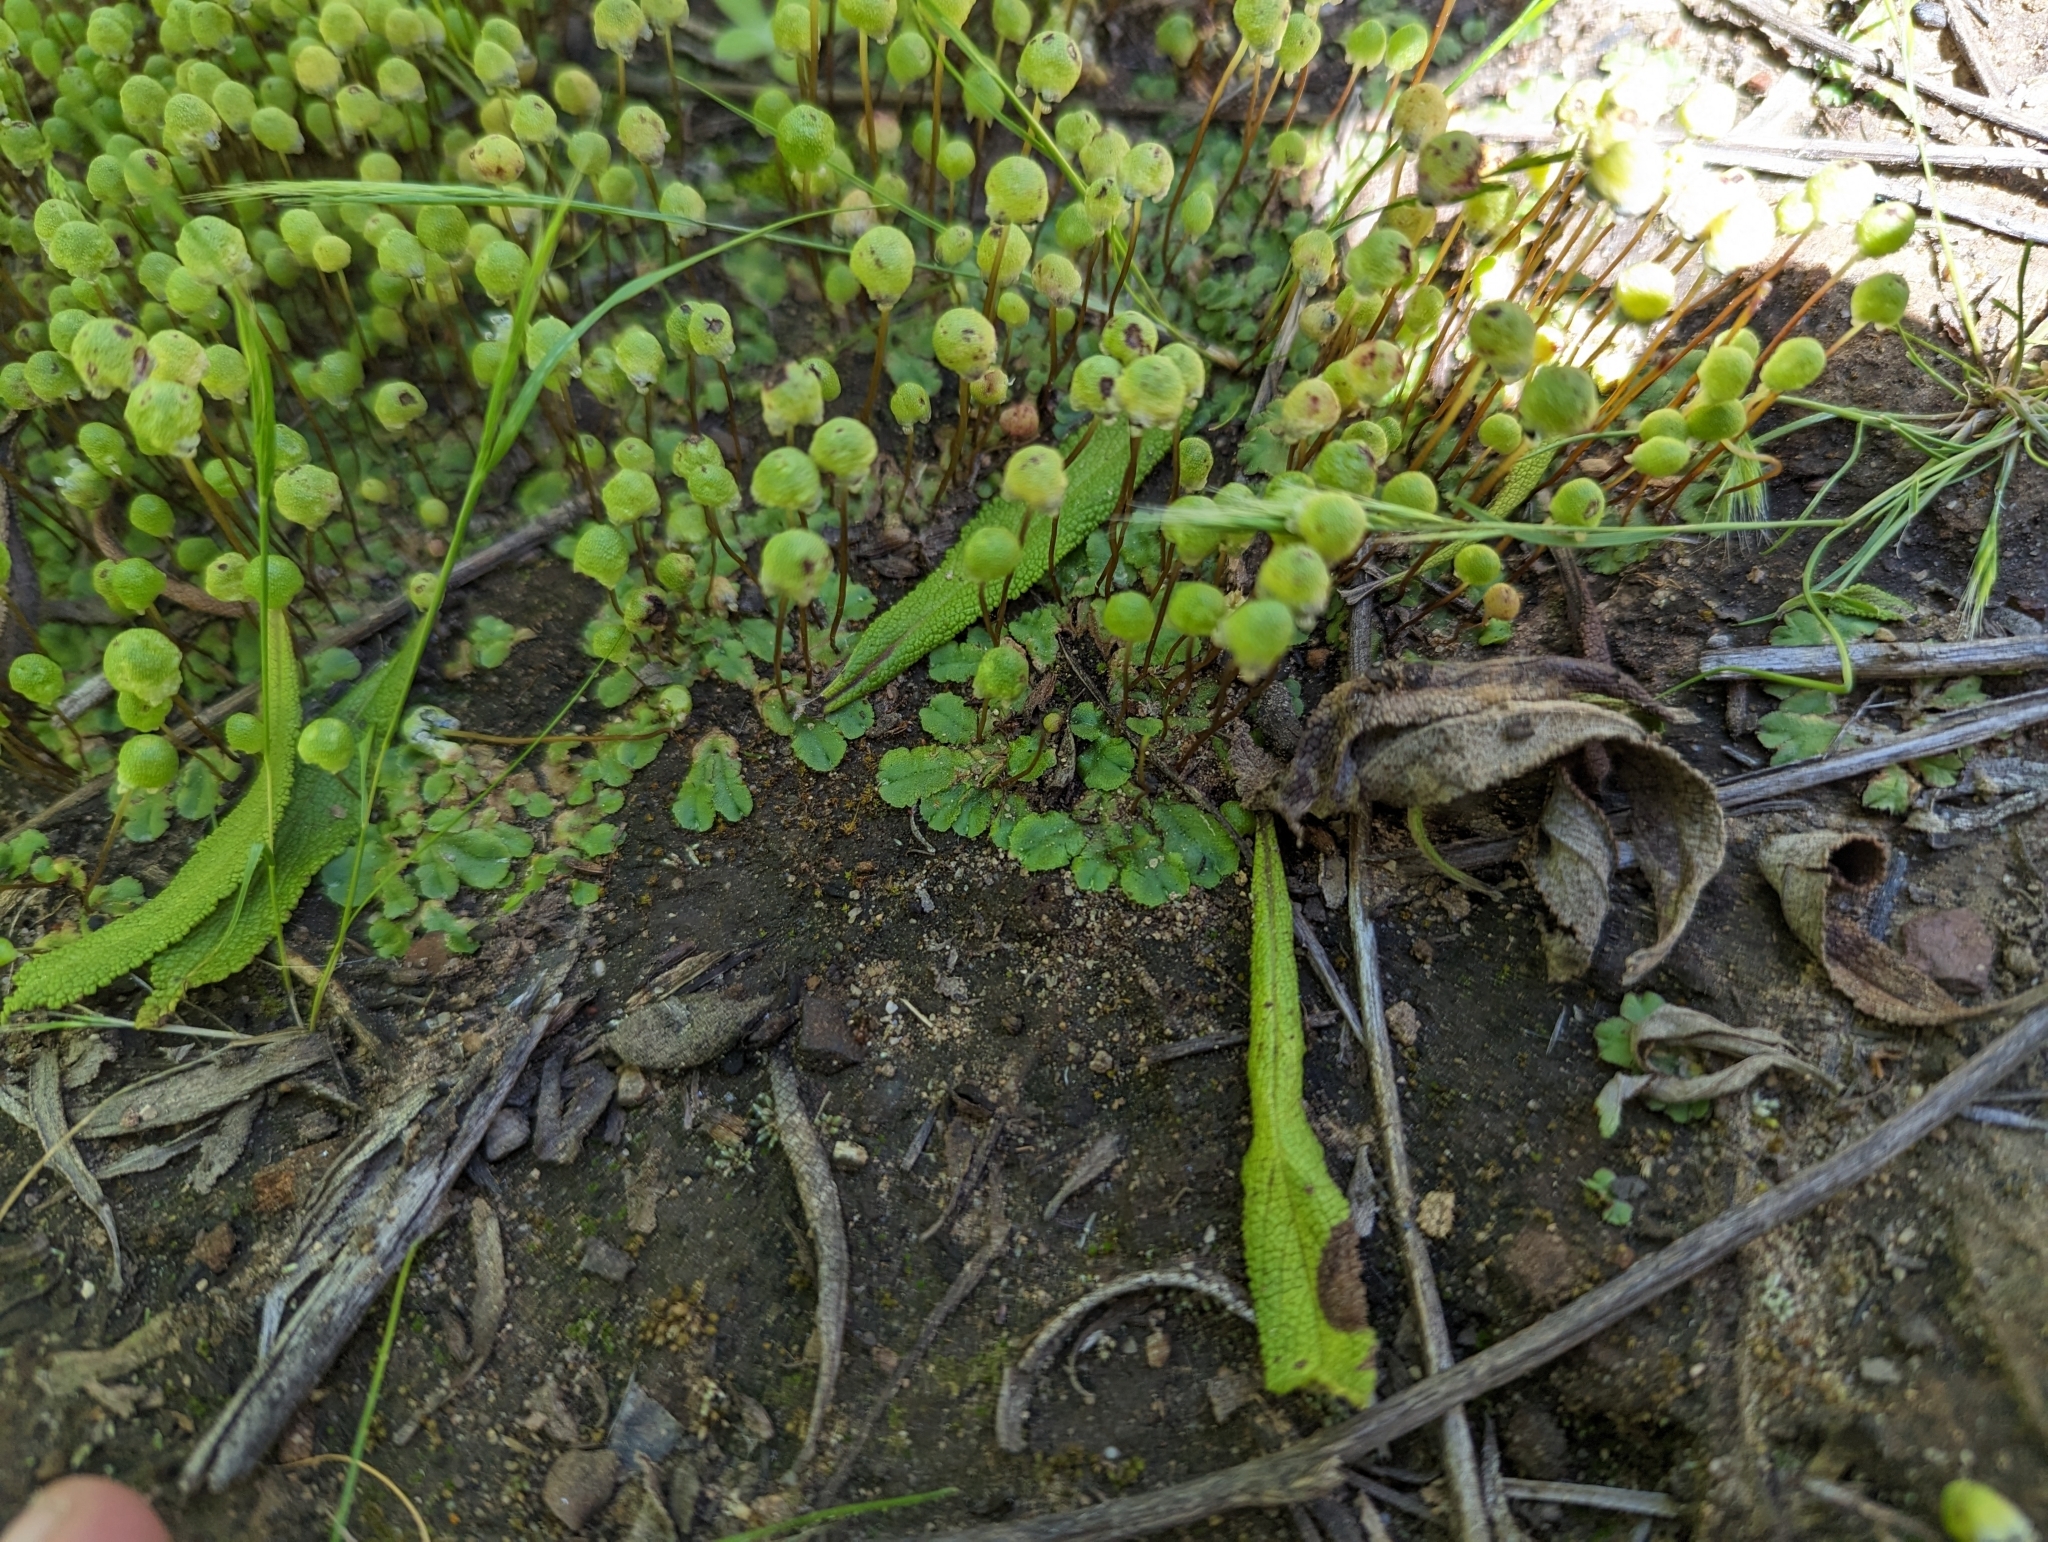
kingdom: Plantae
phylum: Marchantiophyta
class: Marchantiopsida
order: Marchantiales
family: Aytoniaceae
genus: Asterella
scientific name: Asterella palmeri
